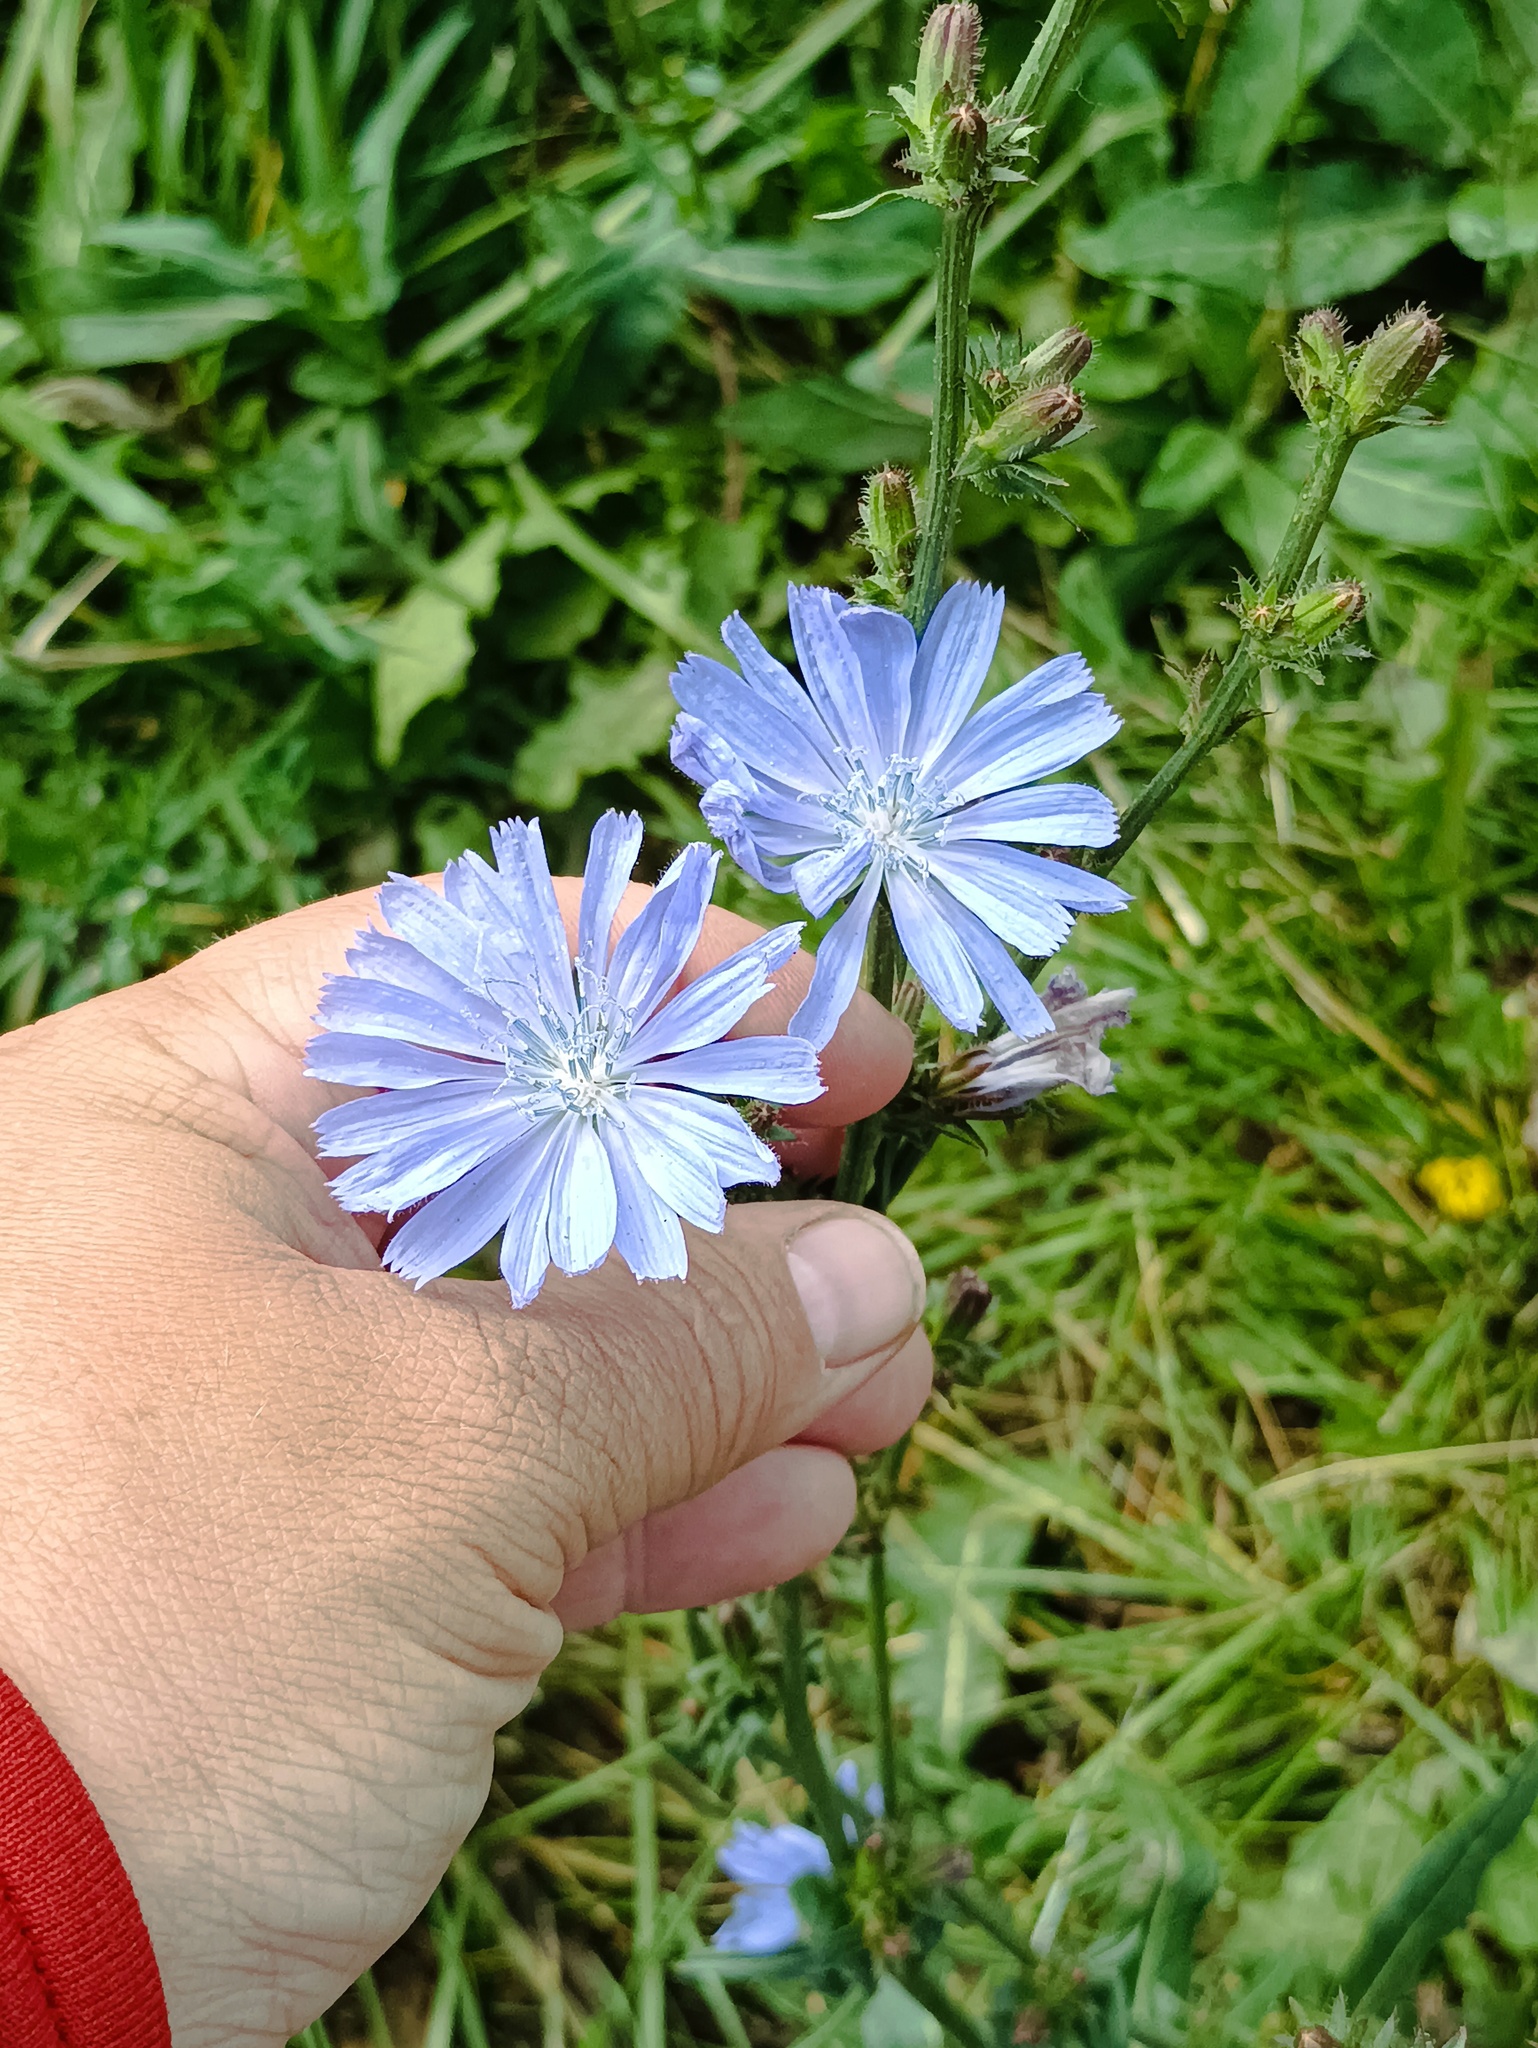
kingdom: Plantae
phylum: Tracheophyta
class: Magnoliopsida
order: Asterales
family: Asteraceae
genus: Cichorium
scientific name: Cichorium intybus
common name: Chicory
